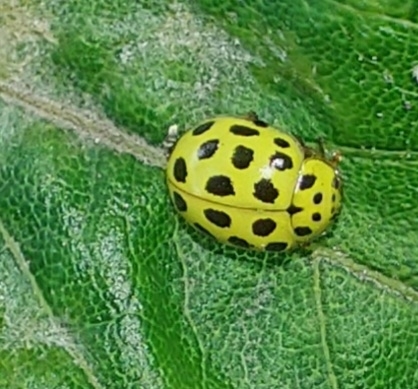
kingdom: Animalia
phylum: Arthropoda
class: Insecta
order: Coleoptera
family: Coccinellidae
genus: Psyllobora
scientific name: Psyllobora vigintiduopunctata
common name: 22-spot ladybird
